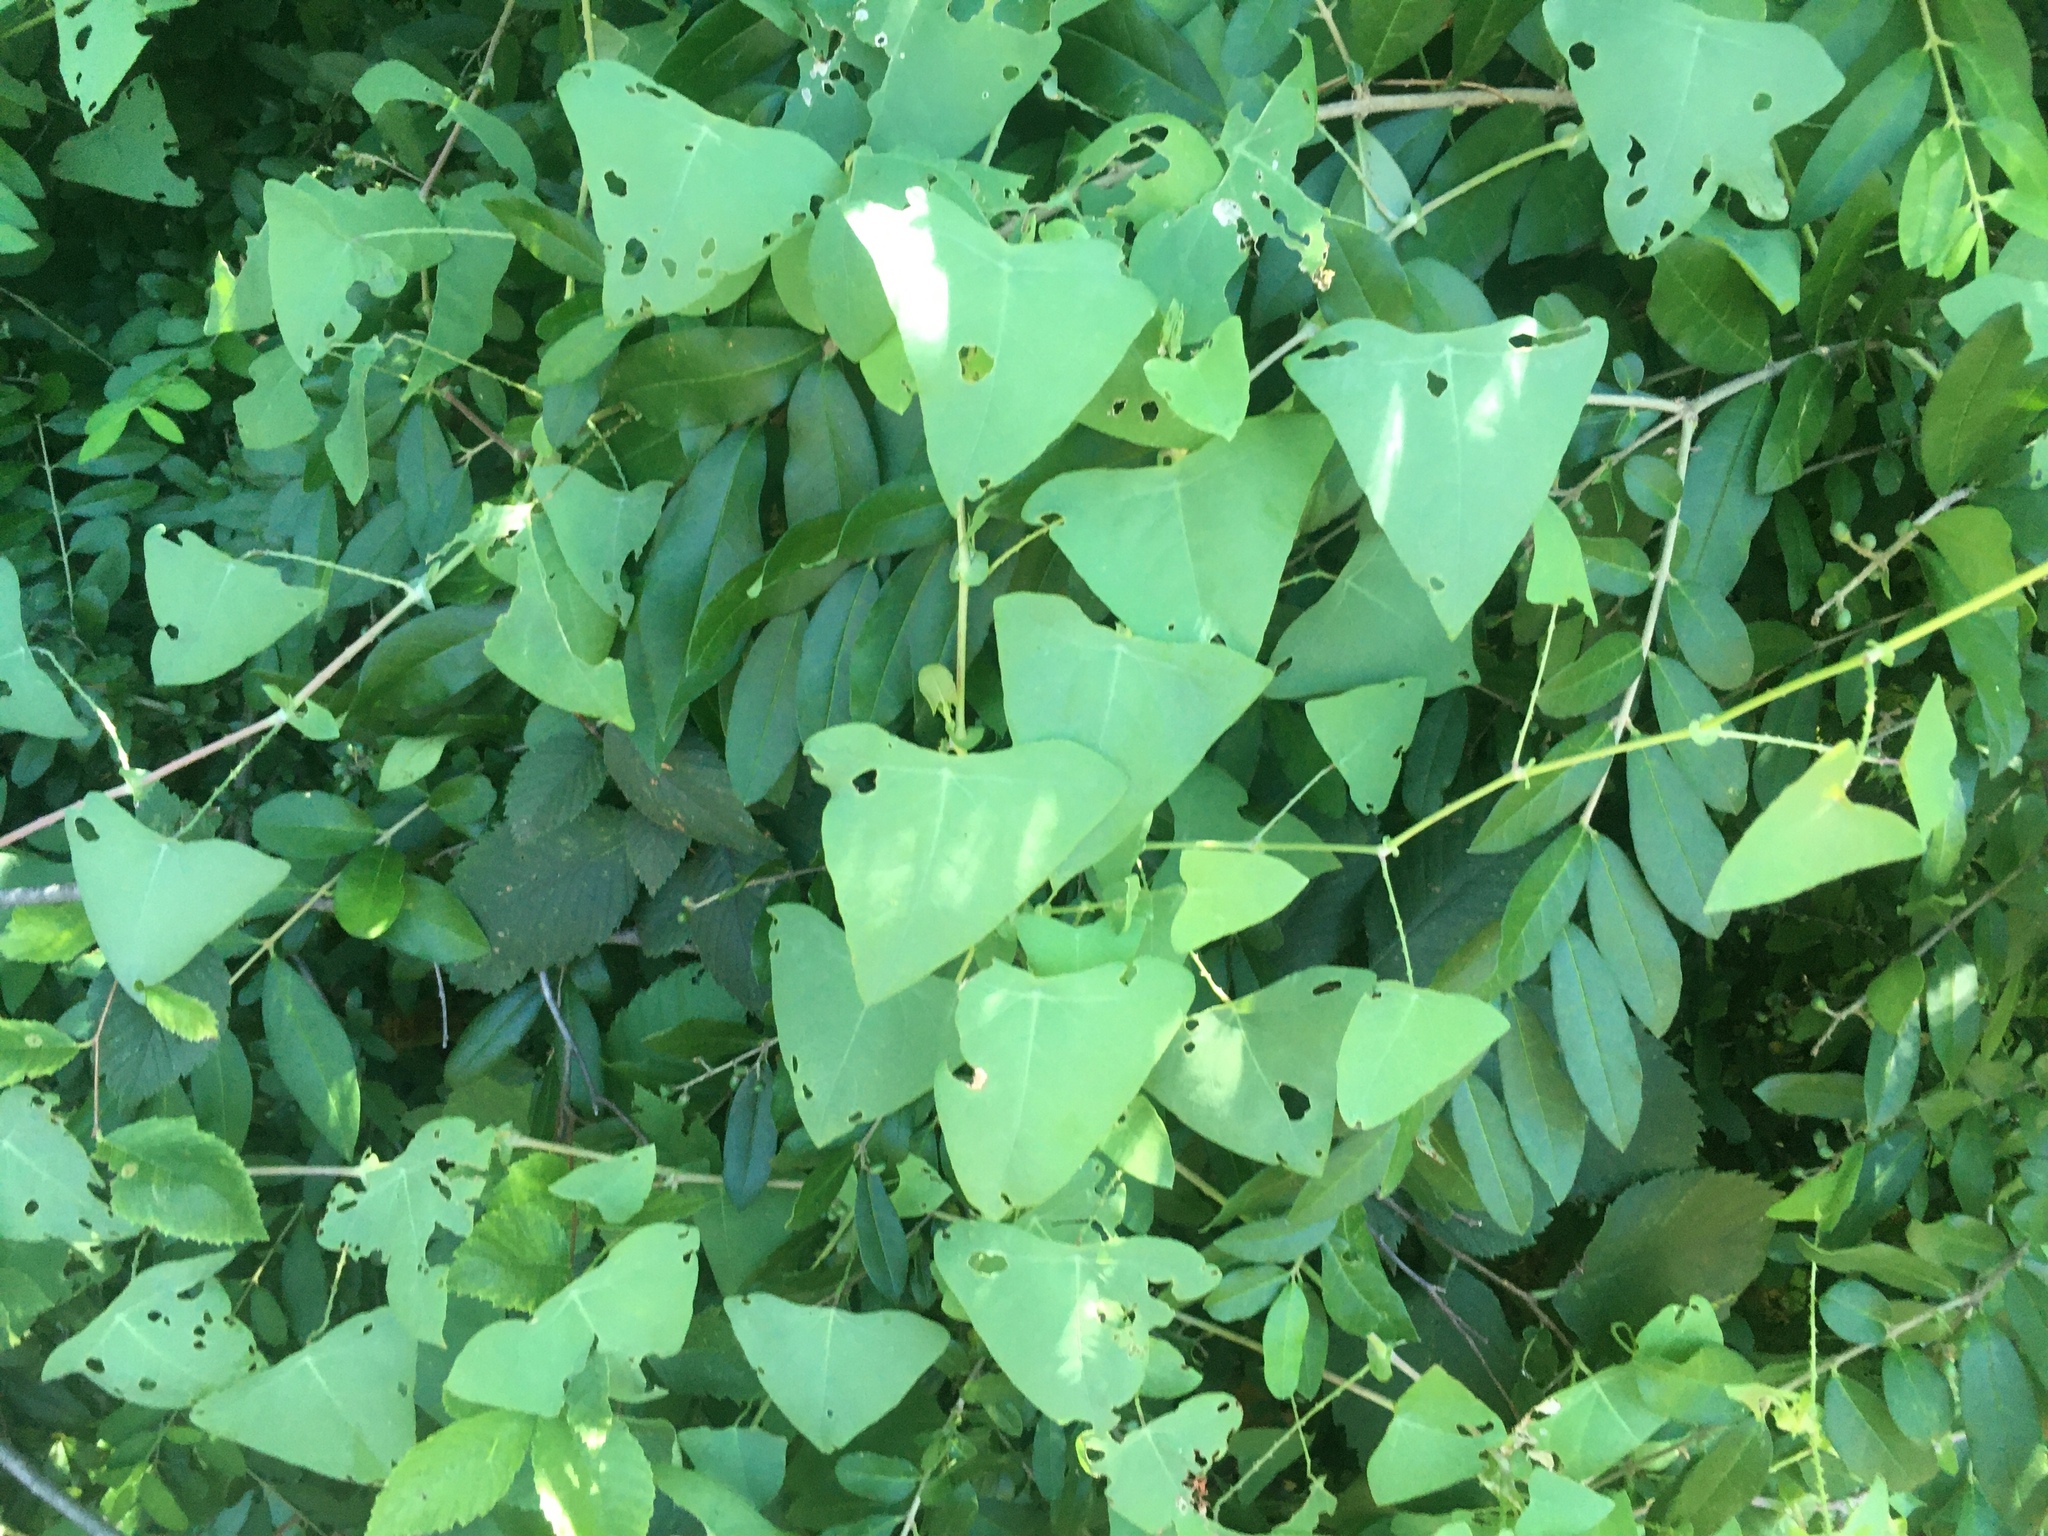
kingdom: Plantae
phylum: Tracheophyta
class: Magnoliopsida
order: Caryophyllales
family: Polygonaceae
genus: Persicaria
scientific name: Persicaria perfoliata
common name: Asiatic tearthumb
